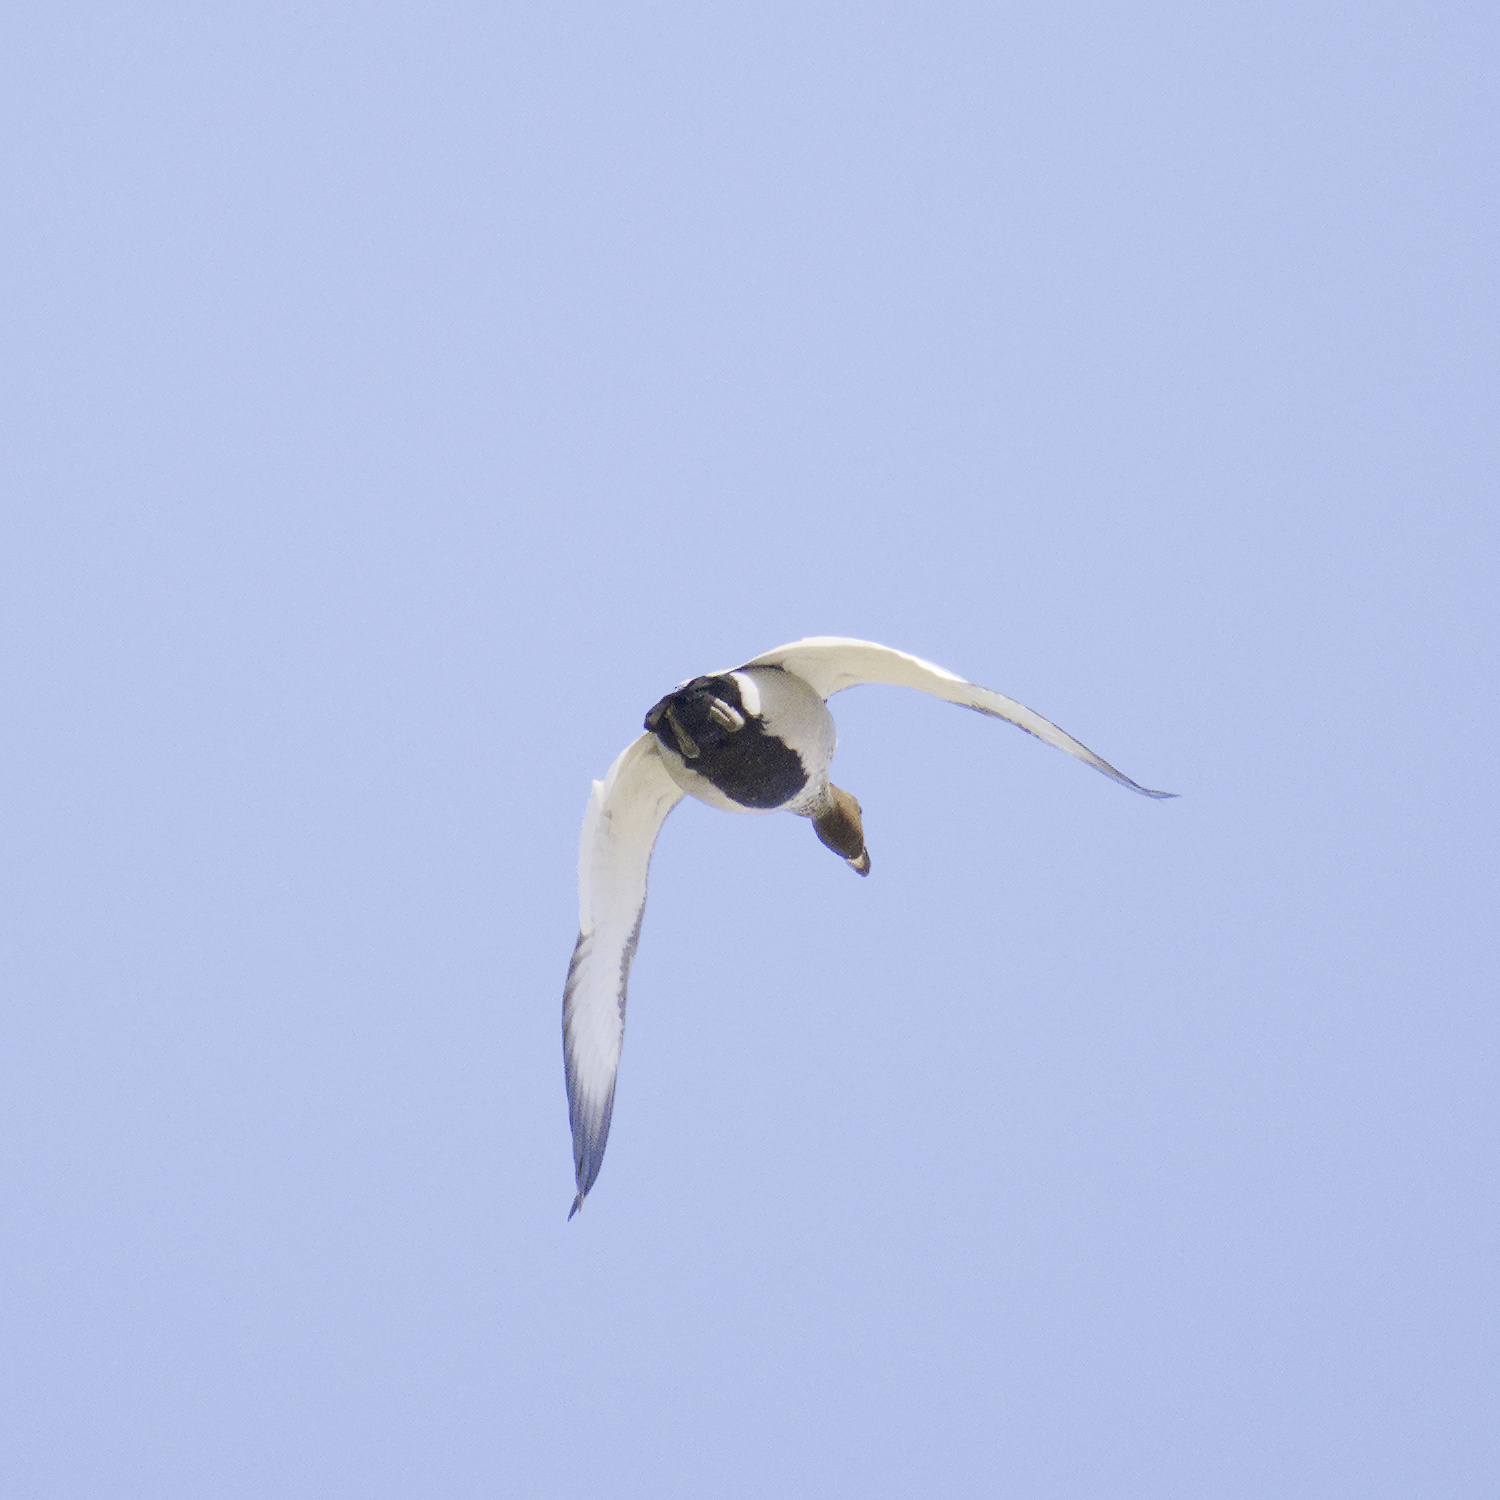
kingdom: Animalia
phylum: Chordata
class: Aves
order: Anseriformes
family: Anatidae
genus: Chenonetta
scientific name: Chenonetta jubata
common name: Maned duck
